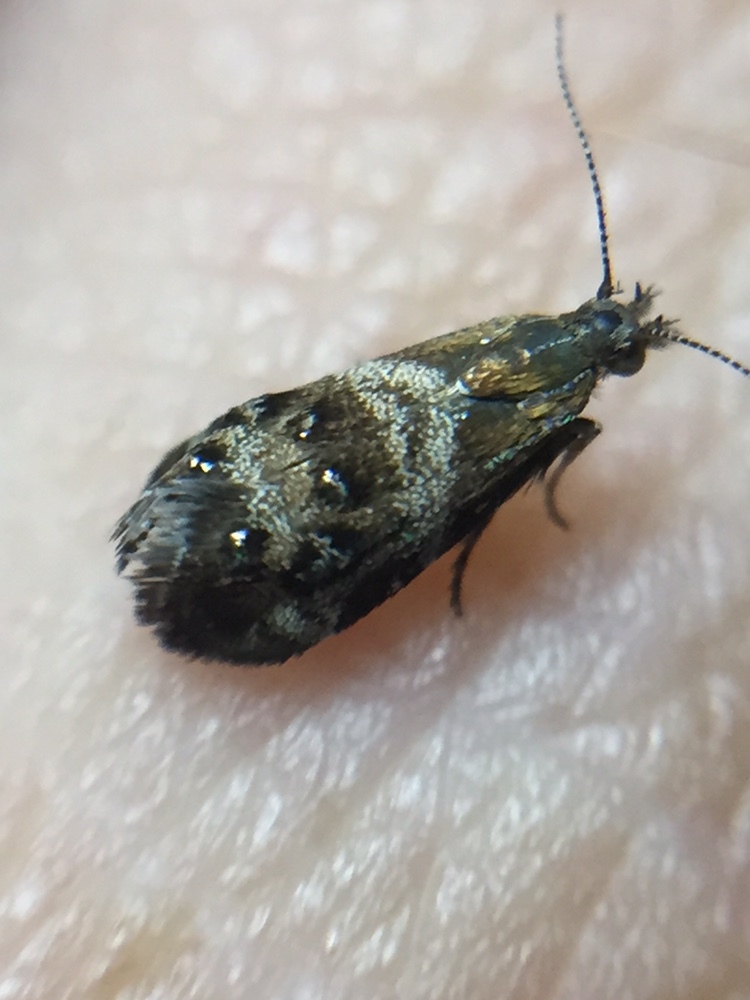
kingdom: Animalia
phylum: Arthropoda
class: Insecta
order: Lepidoptera
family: Choreutidae
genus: Tebenna
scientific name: Tebenna micalis
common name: Vagrant twitcher
